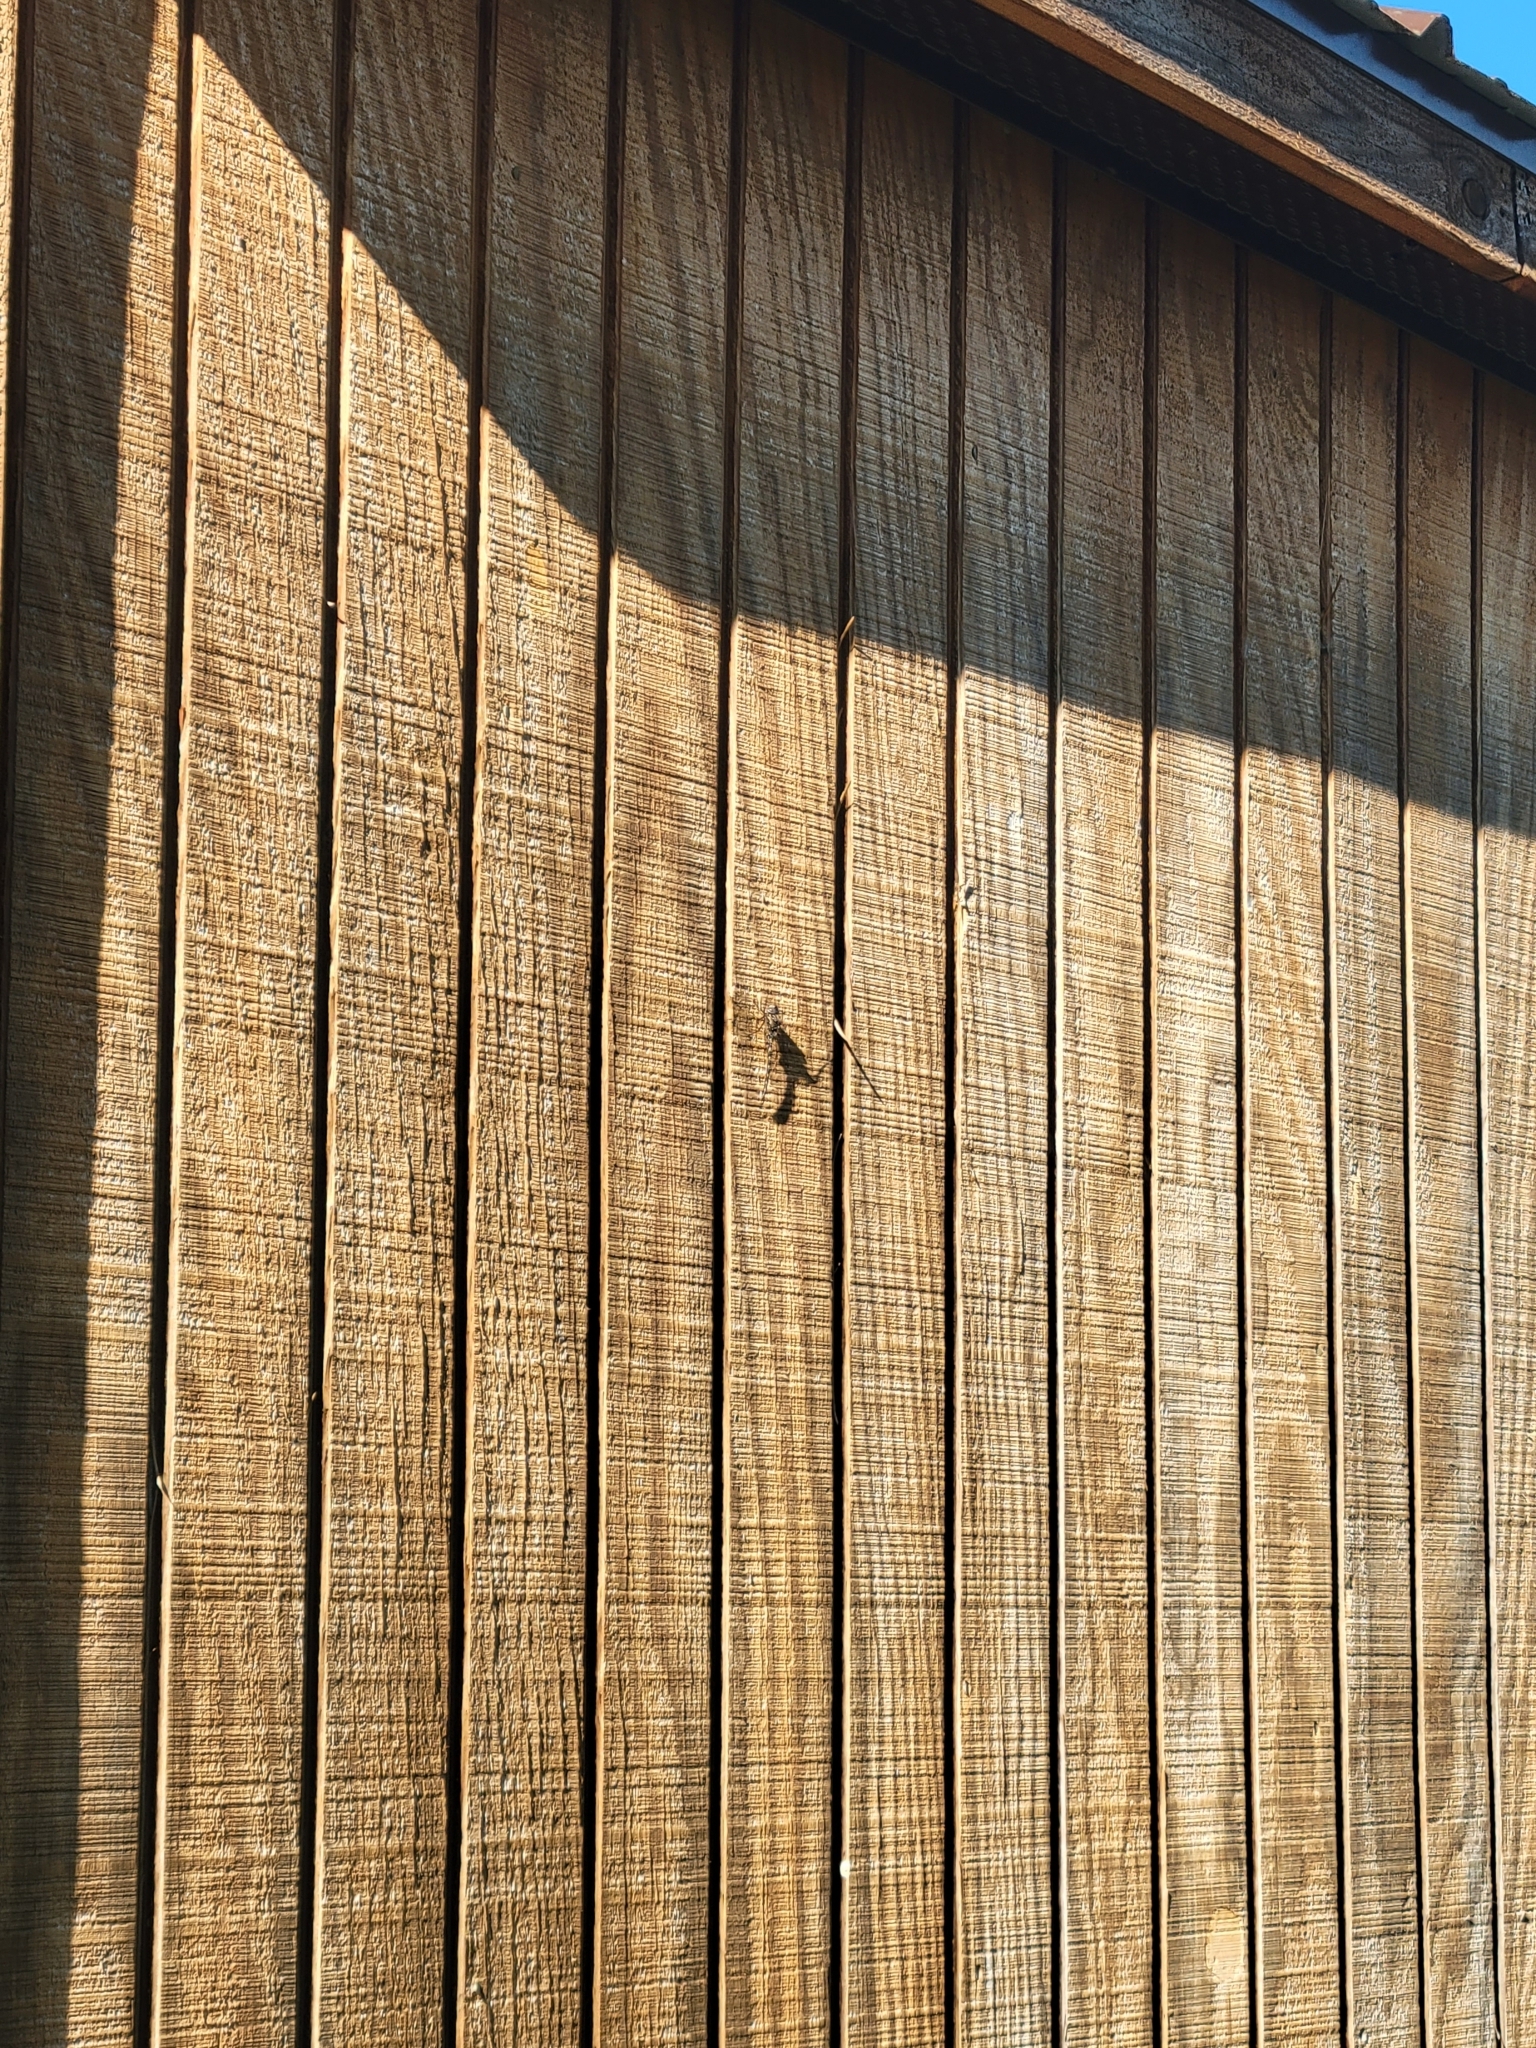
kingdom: Animalia
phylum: Arthropoda
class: Insecta
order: Odonata
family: Aeshnidae
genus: Gomphaeschna
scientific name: Gomphaeschna furcillata
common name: Harlequin darner
